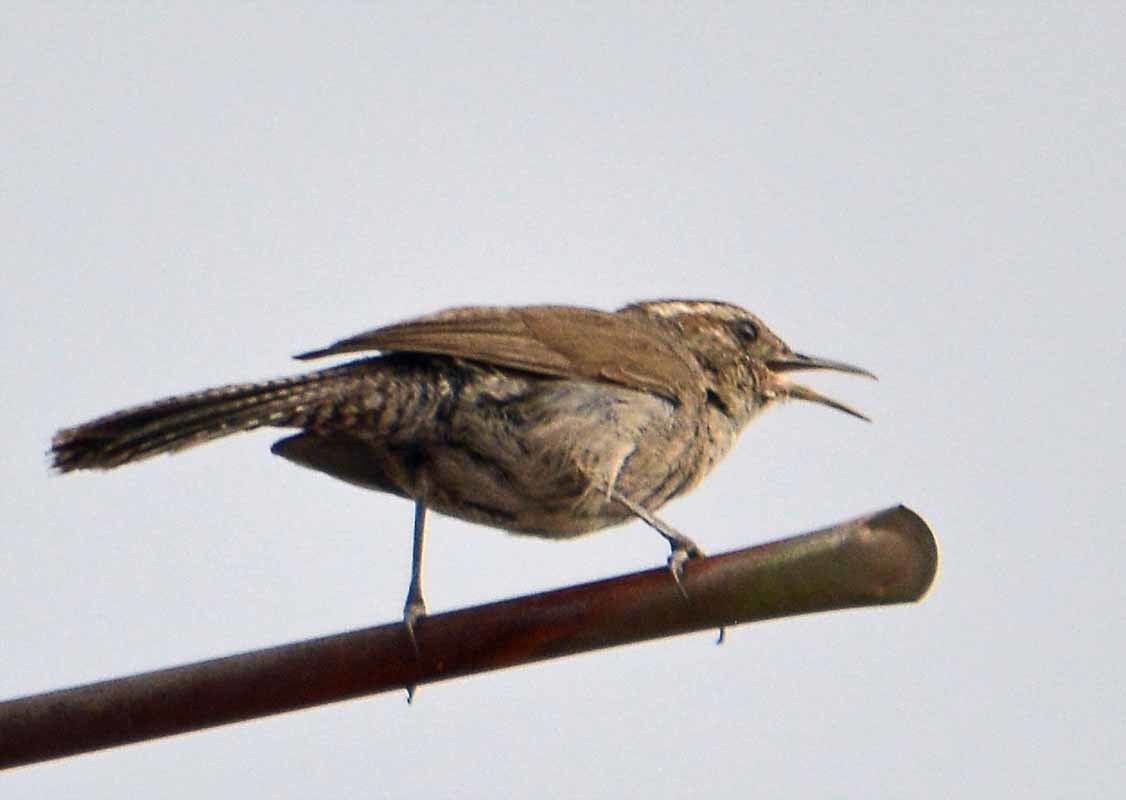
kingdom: Animalia
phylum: Chordata
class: Aves
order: Passeriformes
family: Troglodytidae
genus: Thryomanes
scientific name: Thryomanes bewickii
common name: Bewick's wren
